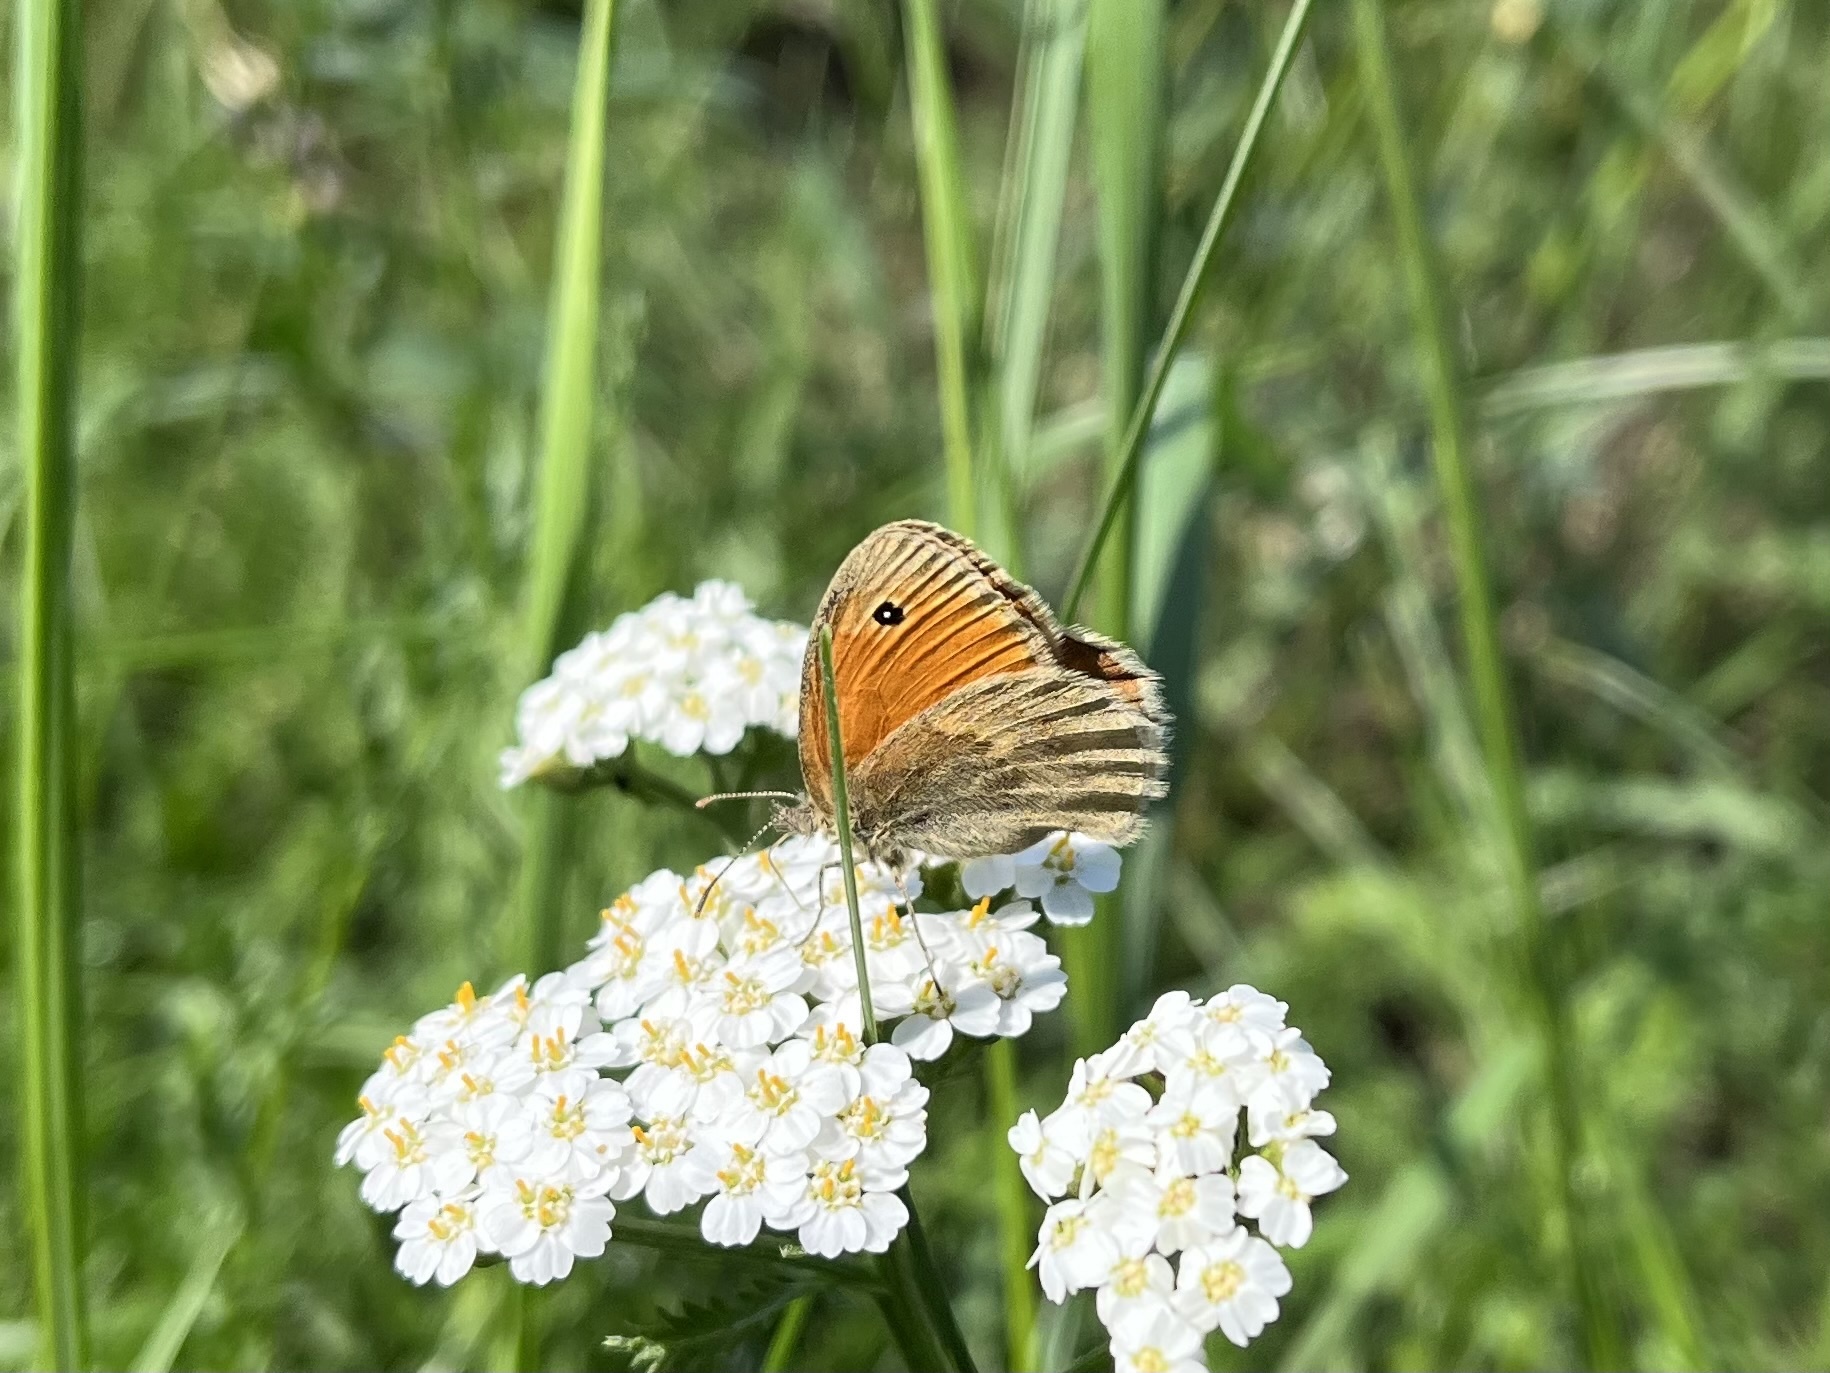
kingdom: Animalia
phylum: Arthropoda
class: Insecta
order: Lepidoptera
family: Nymphalidae
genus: Coenonympha
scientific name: Coenonympha pamphilus
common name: Small heath
